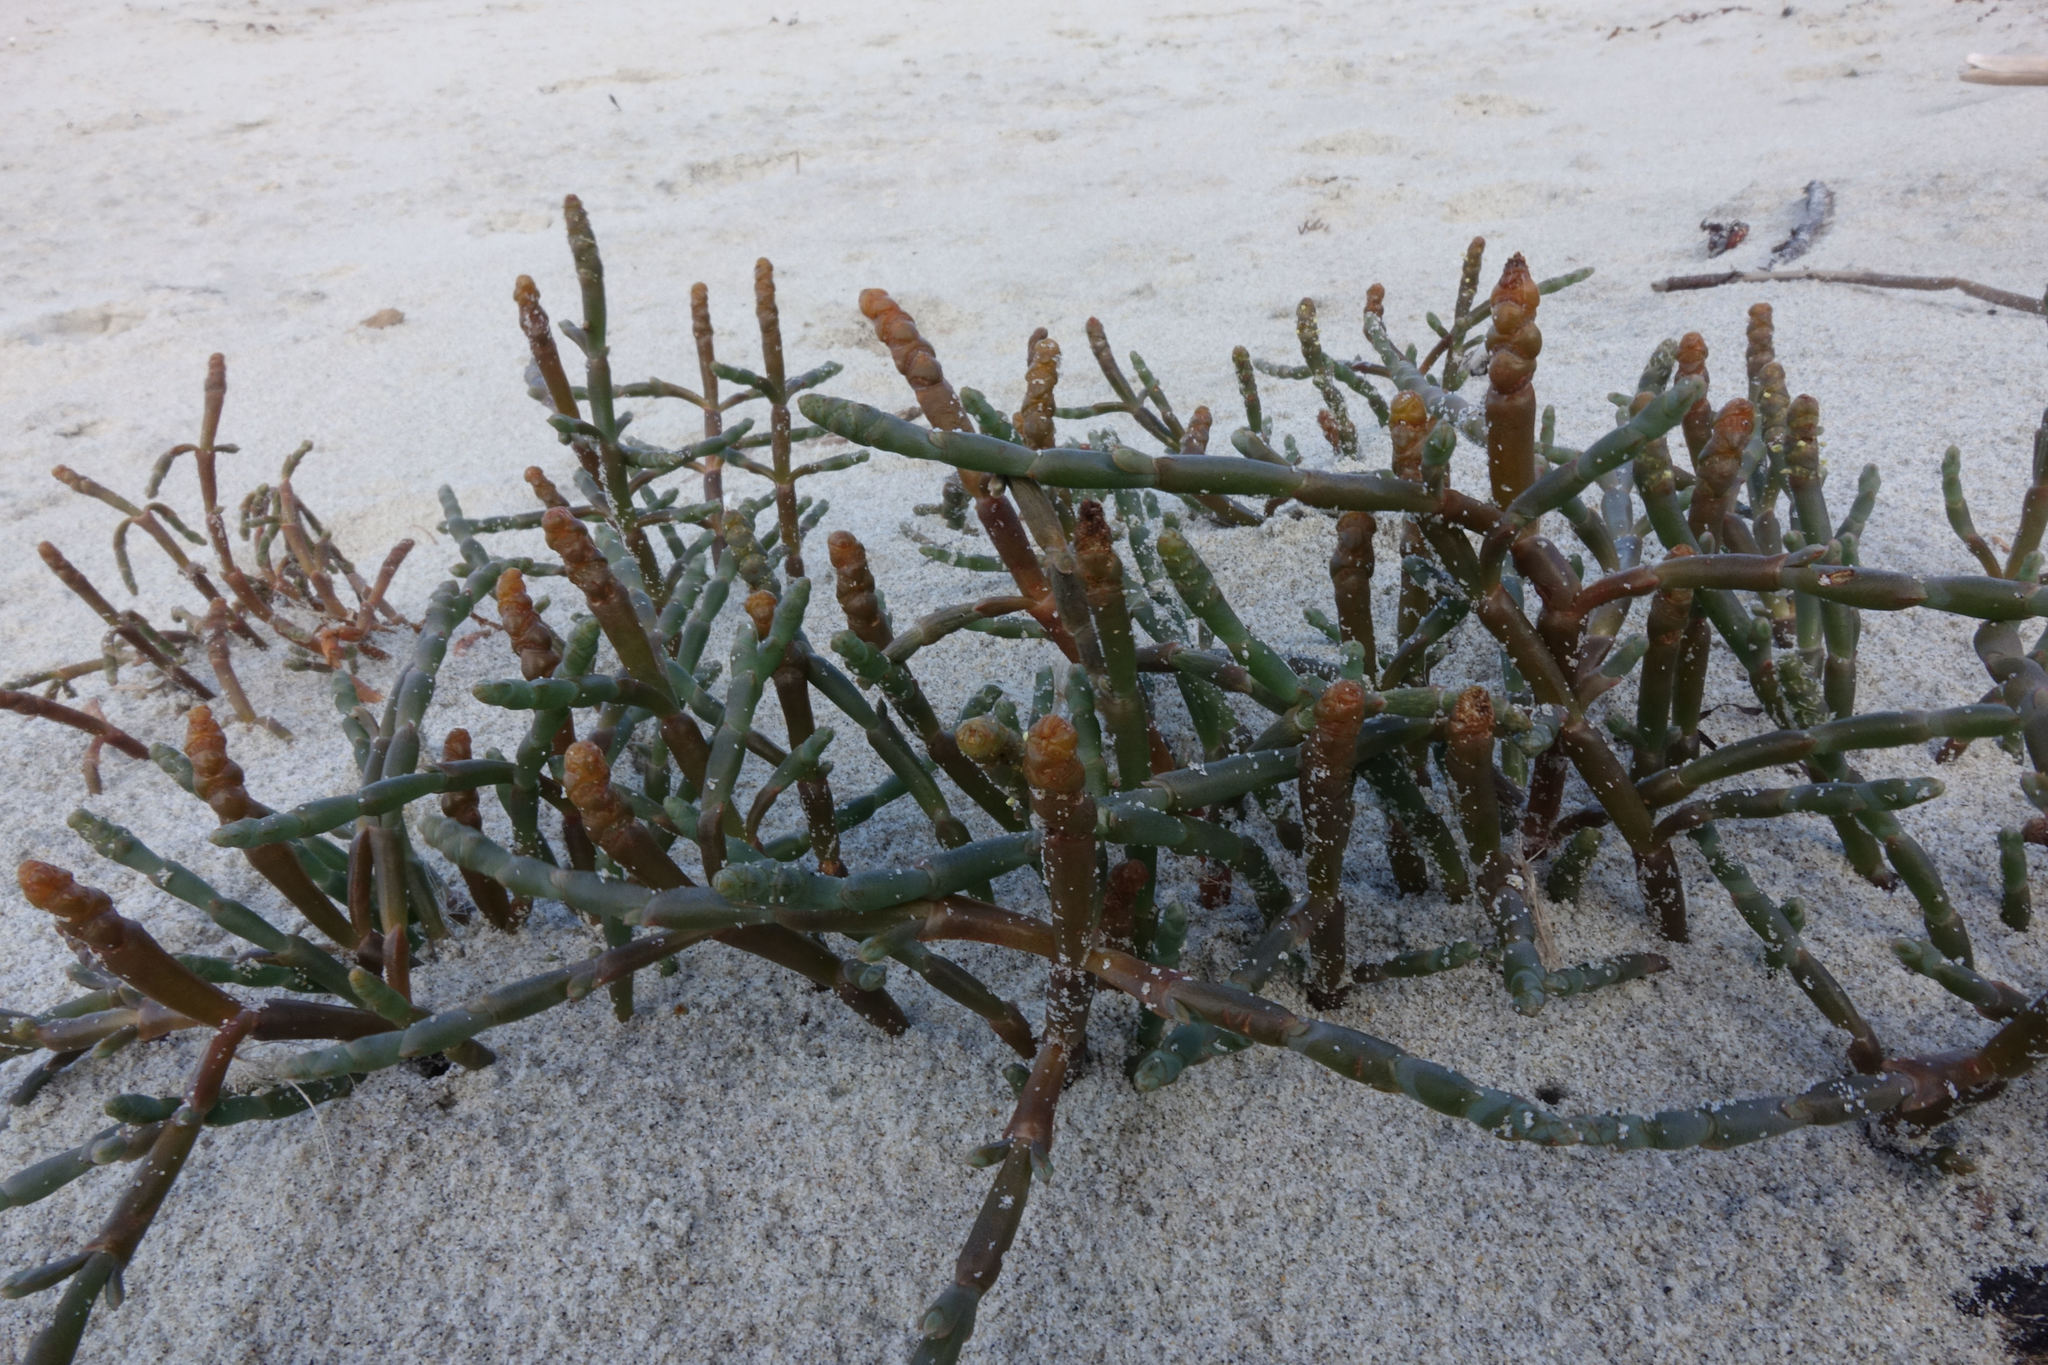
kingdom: Plantae
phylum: Tracheophyta
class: Magnoliopsida
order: Caryophyllales
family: Amaranthaceae
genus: Salicornia
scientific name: Salicornia quinqueflora
